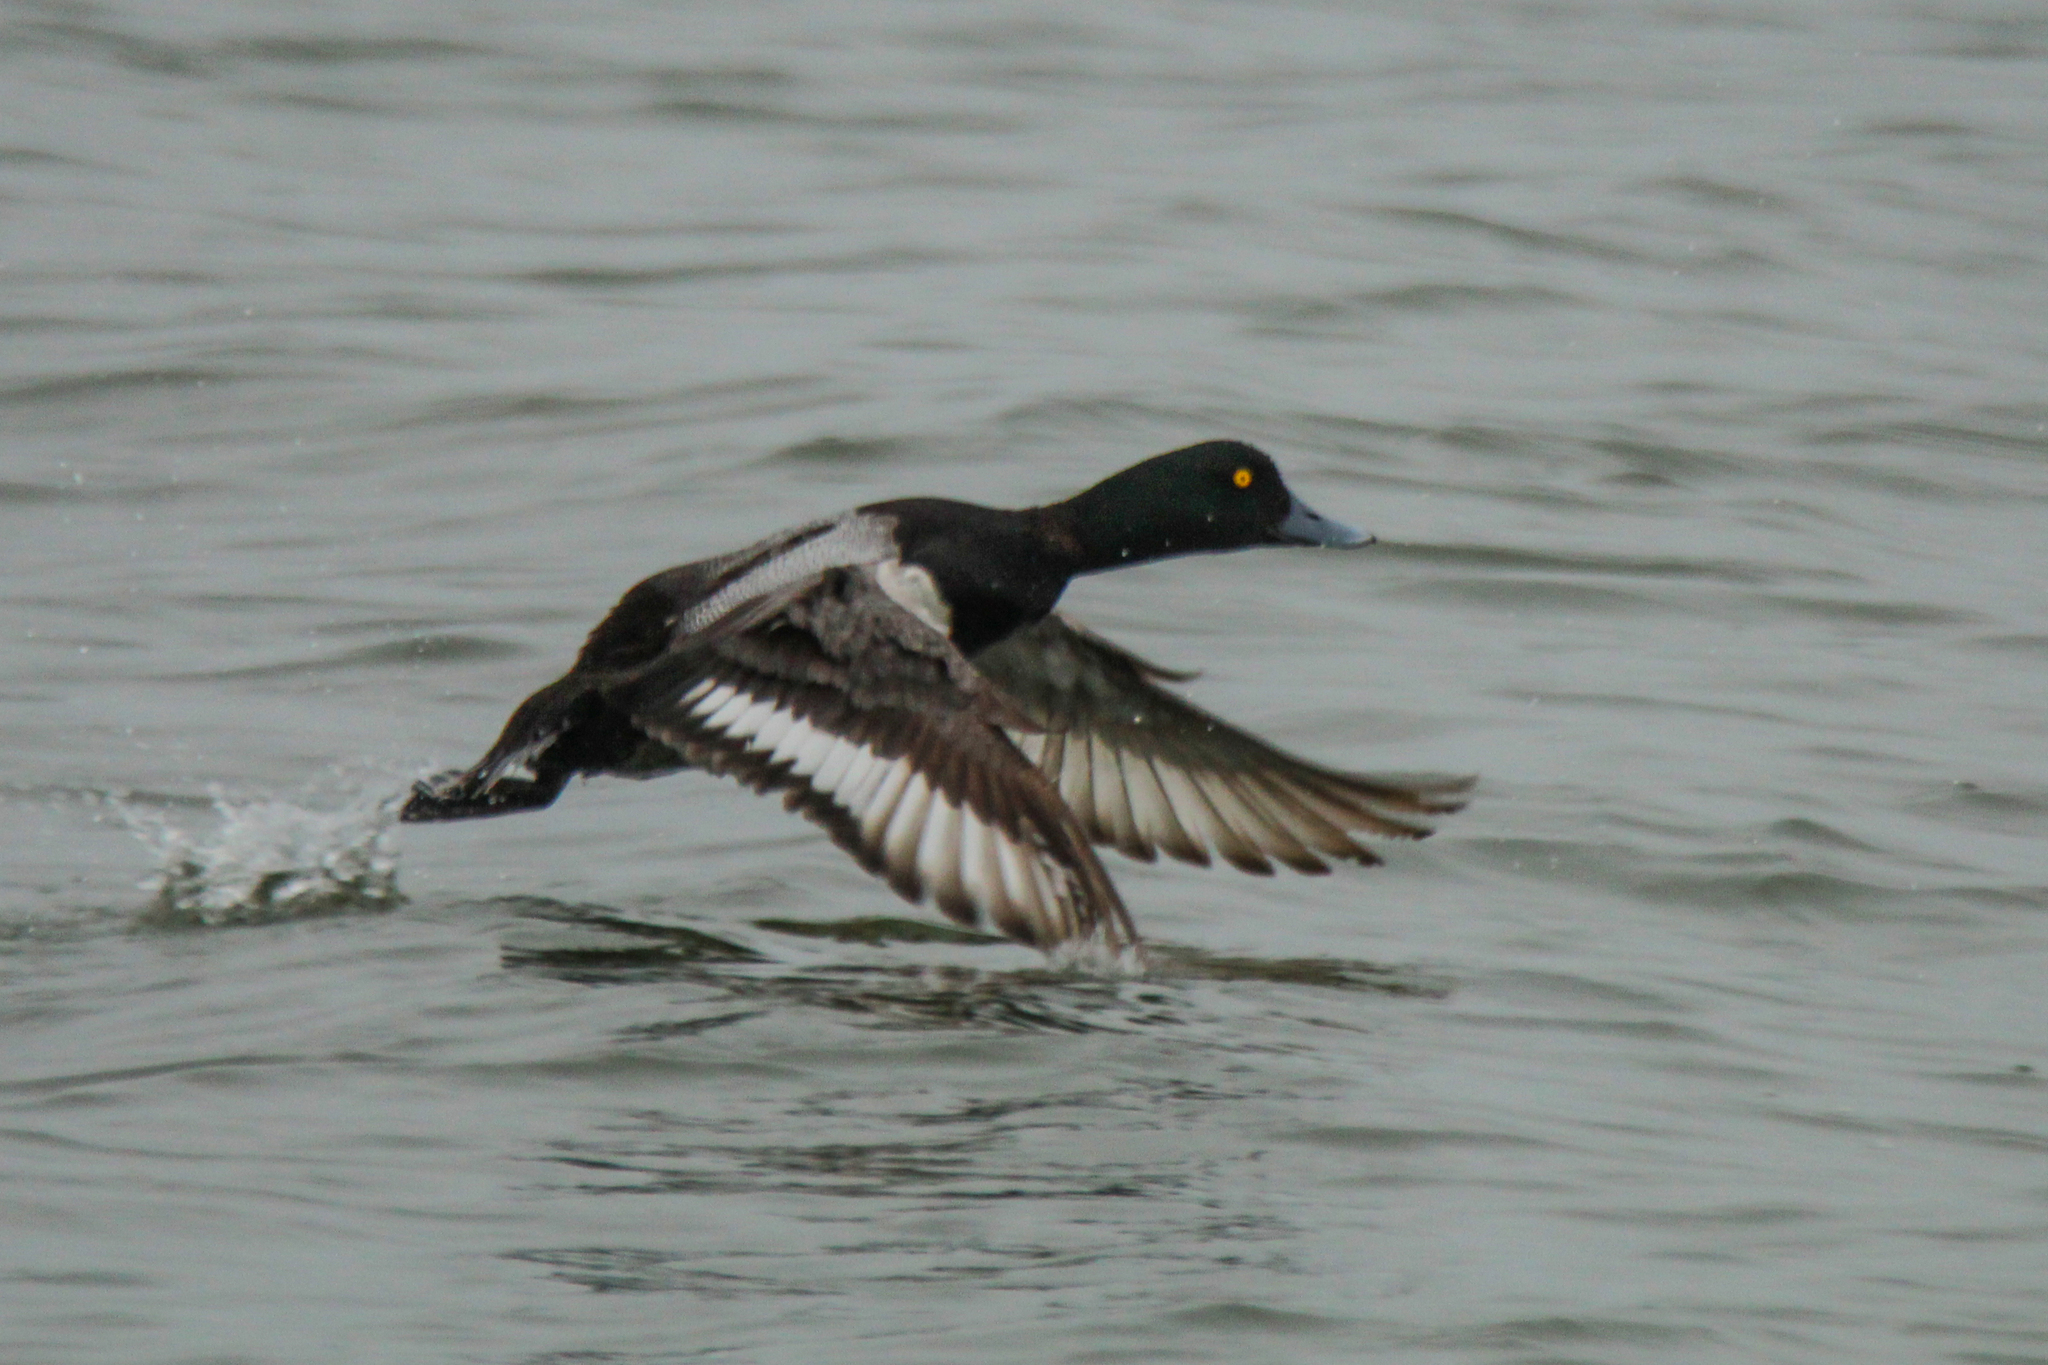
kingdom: Animalia
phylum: Chordata
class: Aves
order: Anseriformes
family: Anatidae
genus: Aythya
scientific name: Aythya marila
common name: Greater scaup
